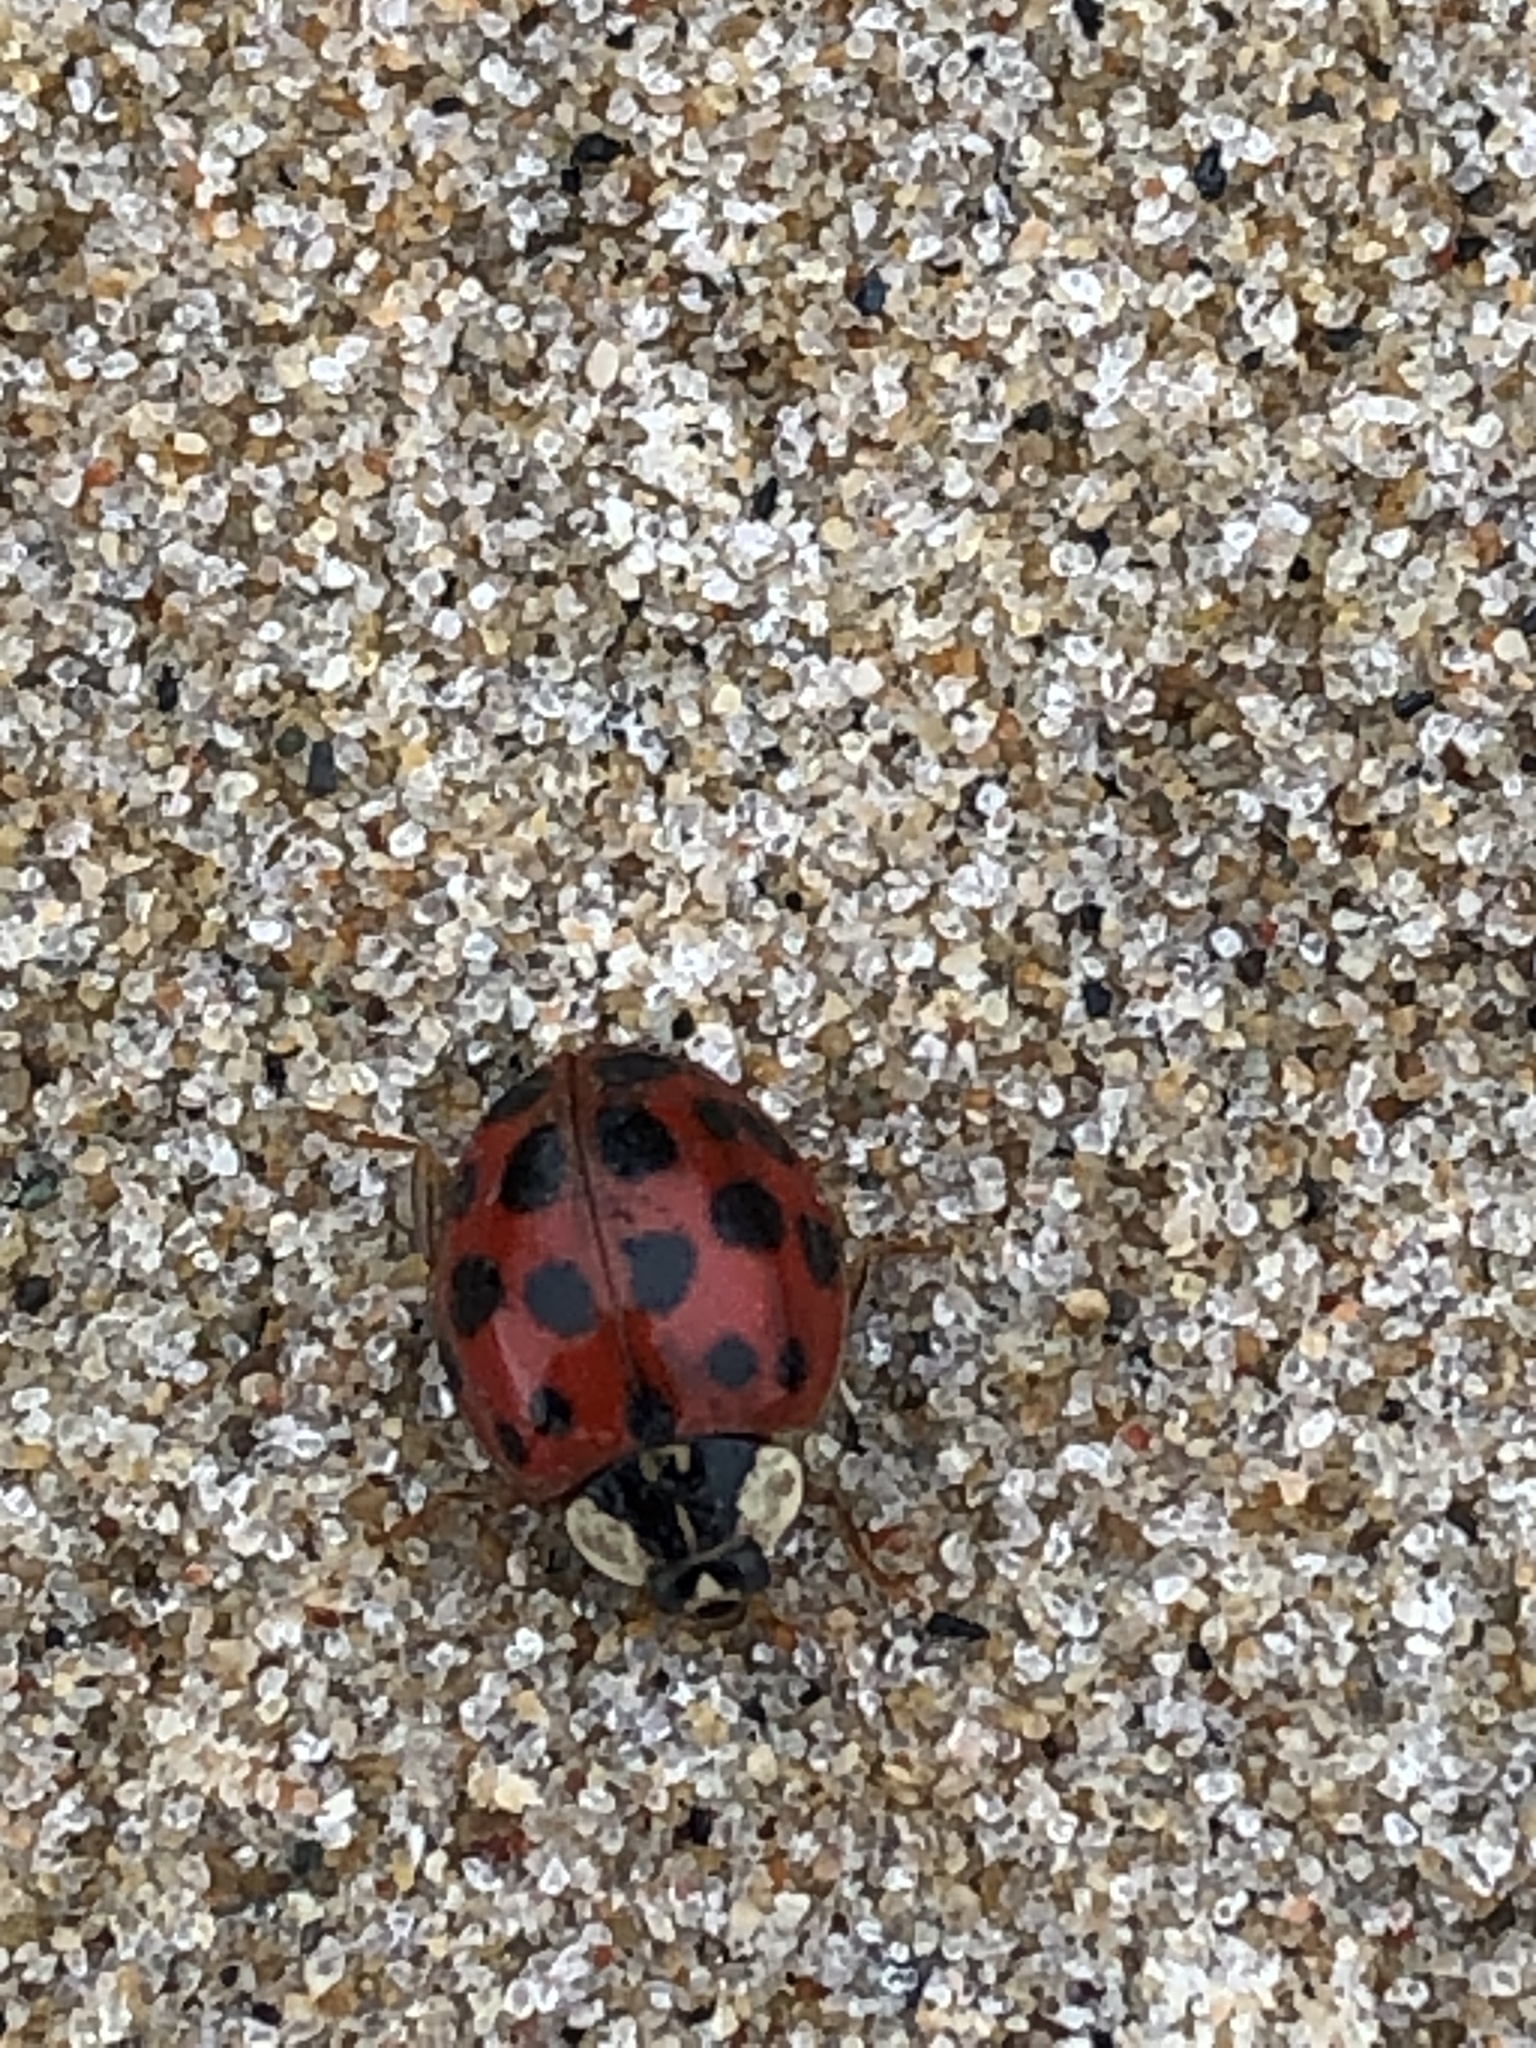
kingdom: Animalia
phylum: Arthropoda
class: Insecta
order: Coleoptera
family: Coccinellidae
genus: Harmonia
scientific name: Harmonia axyridis
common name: Harlequin ladybird
